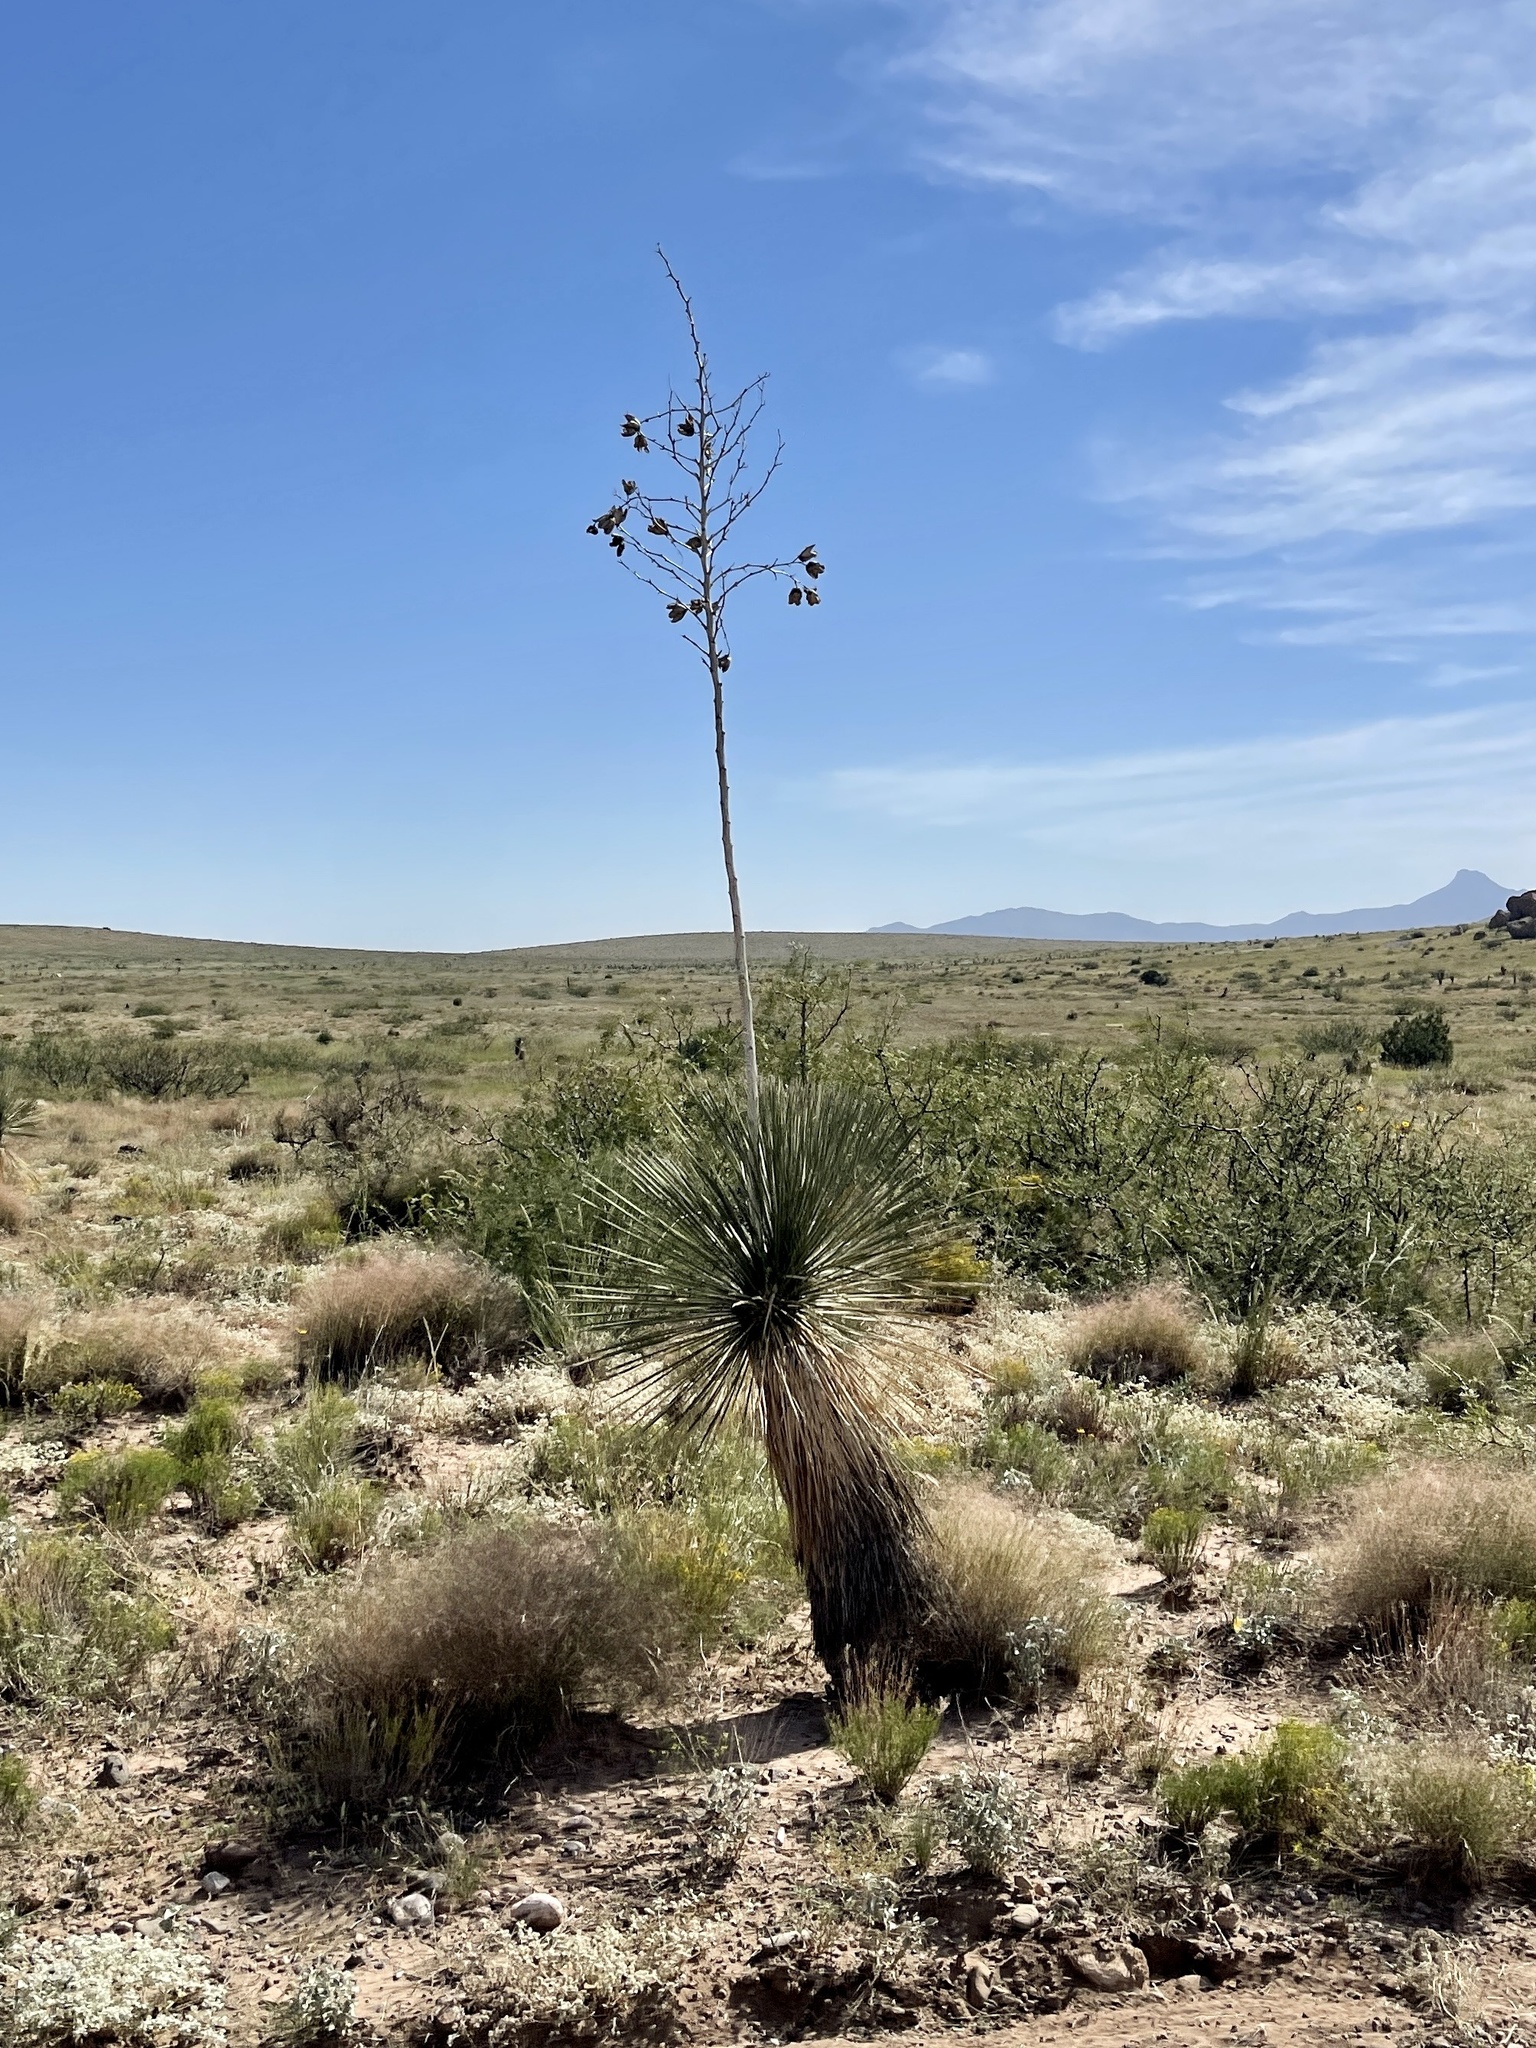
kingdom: Plantae
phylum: Tracheophyta
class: Liliopsida
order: Asparagales
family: Asparagaceae
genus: Yucca
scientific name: Yucca elata
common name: Palmella
